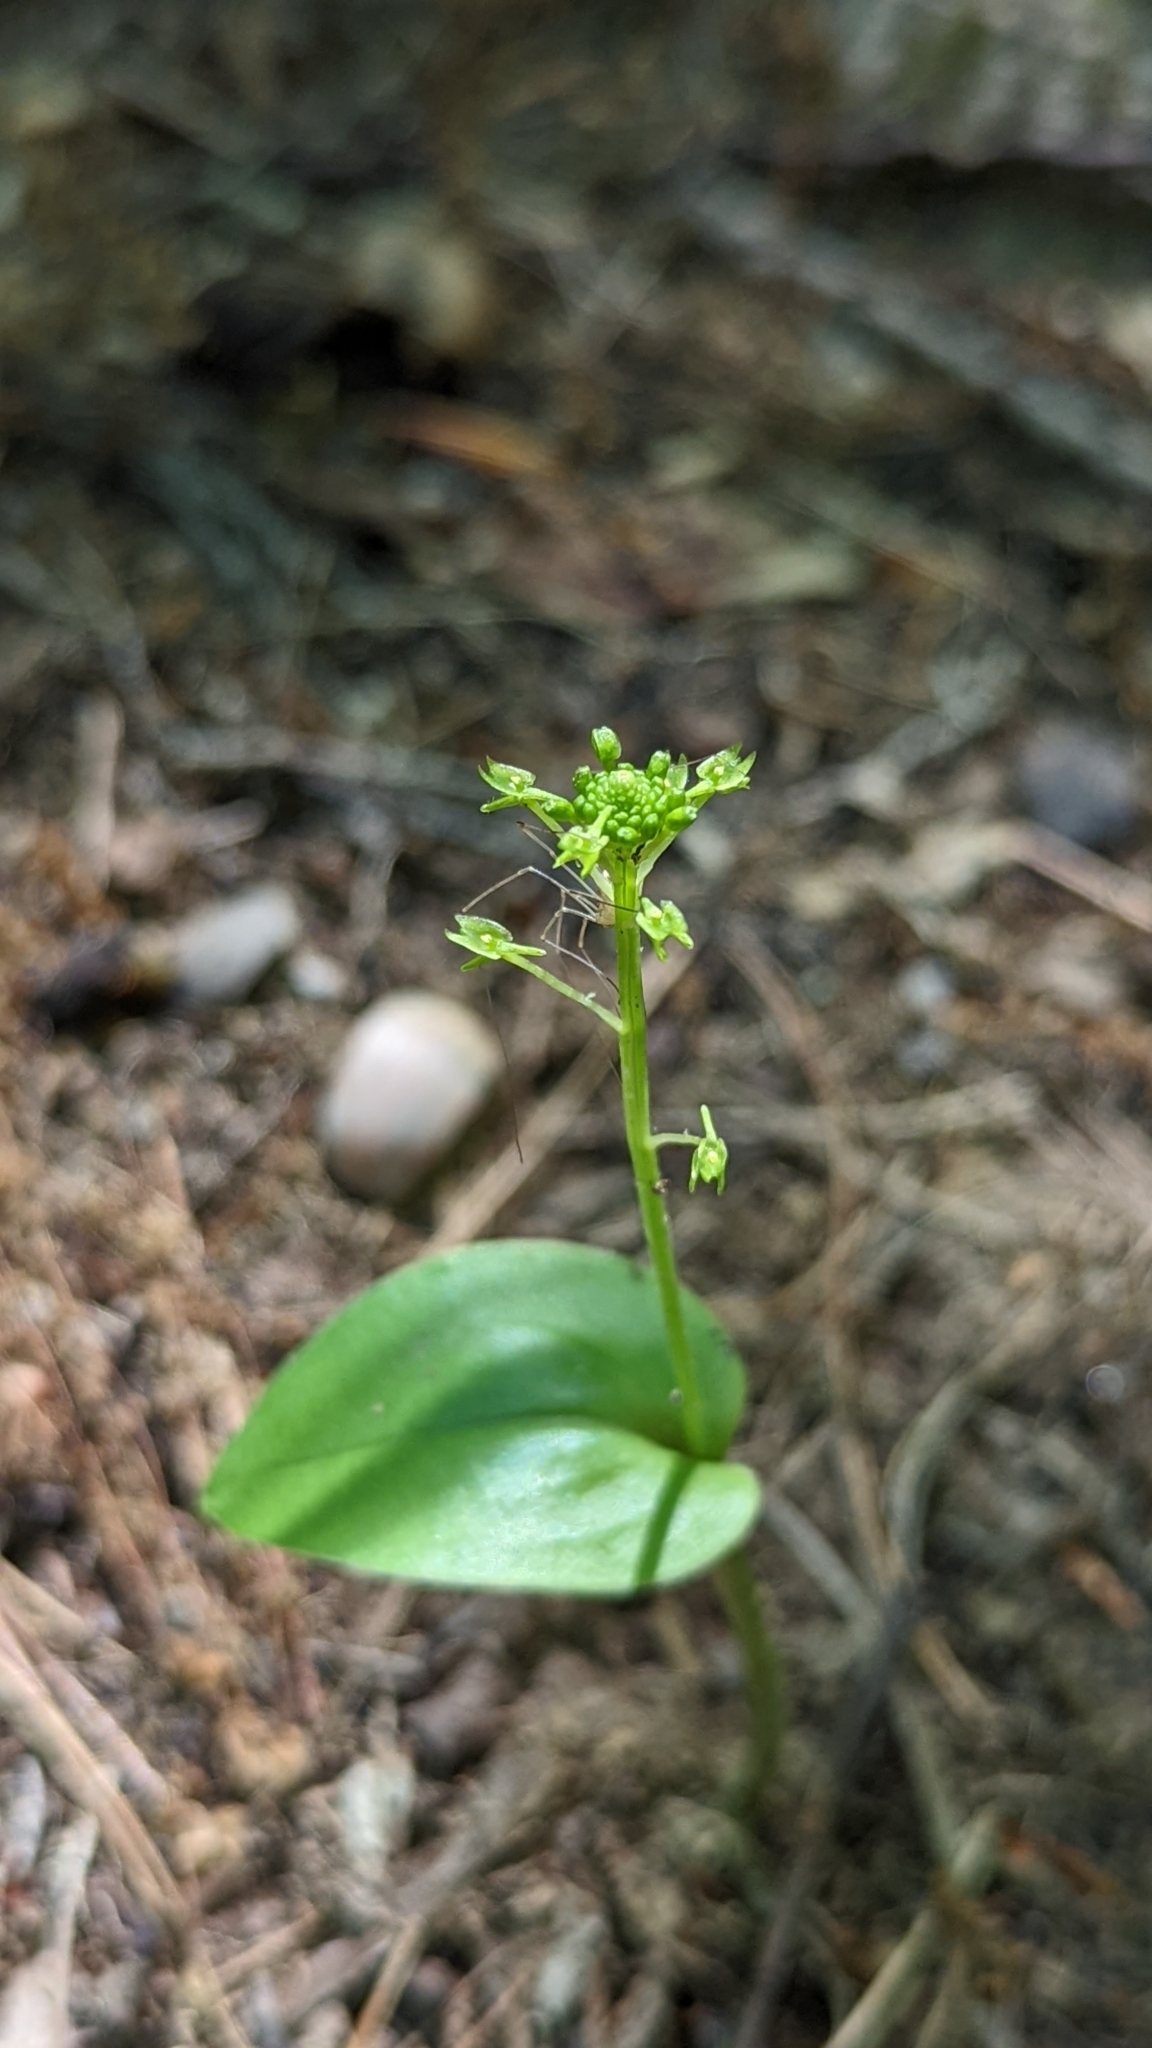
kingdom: Plantae
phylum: Tracheophyta
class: Liliopsida
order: Asparagales
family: Orchidaceae
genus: Malaxis
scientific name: Malaxis unifolia
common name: Green adder's-mouth
